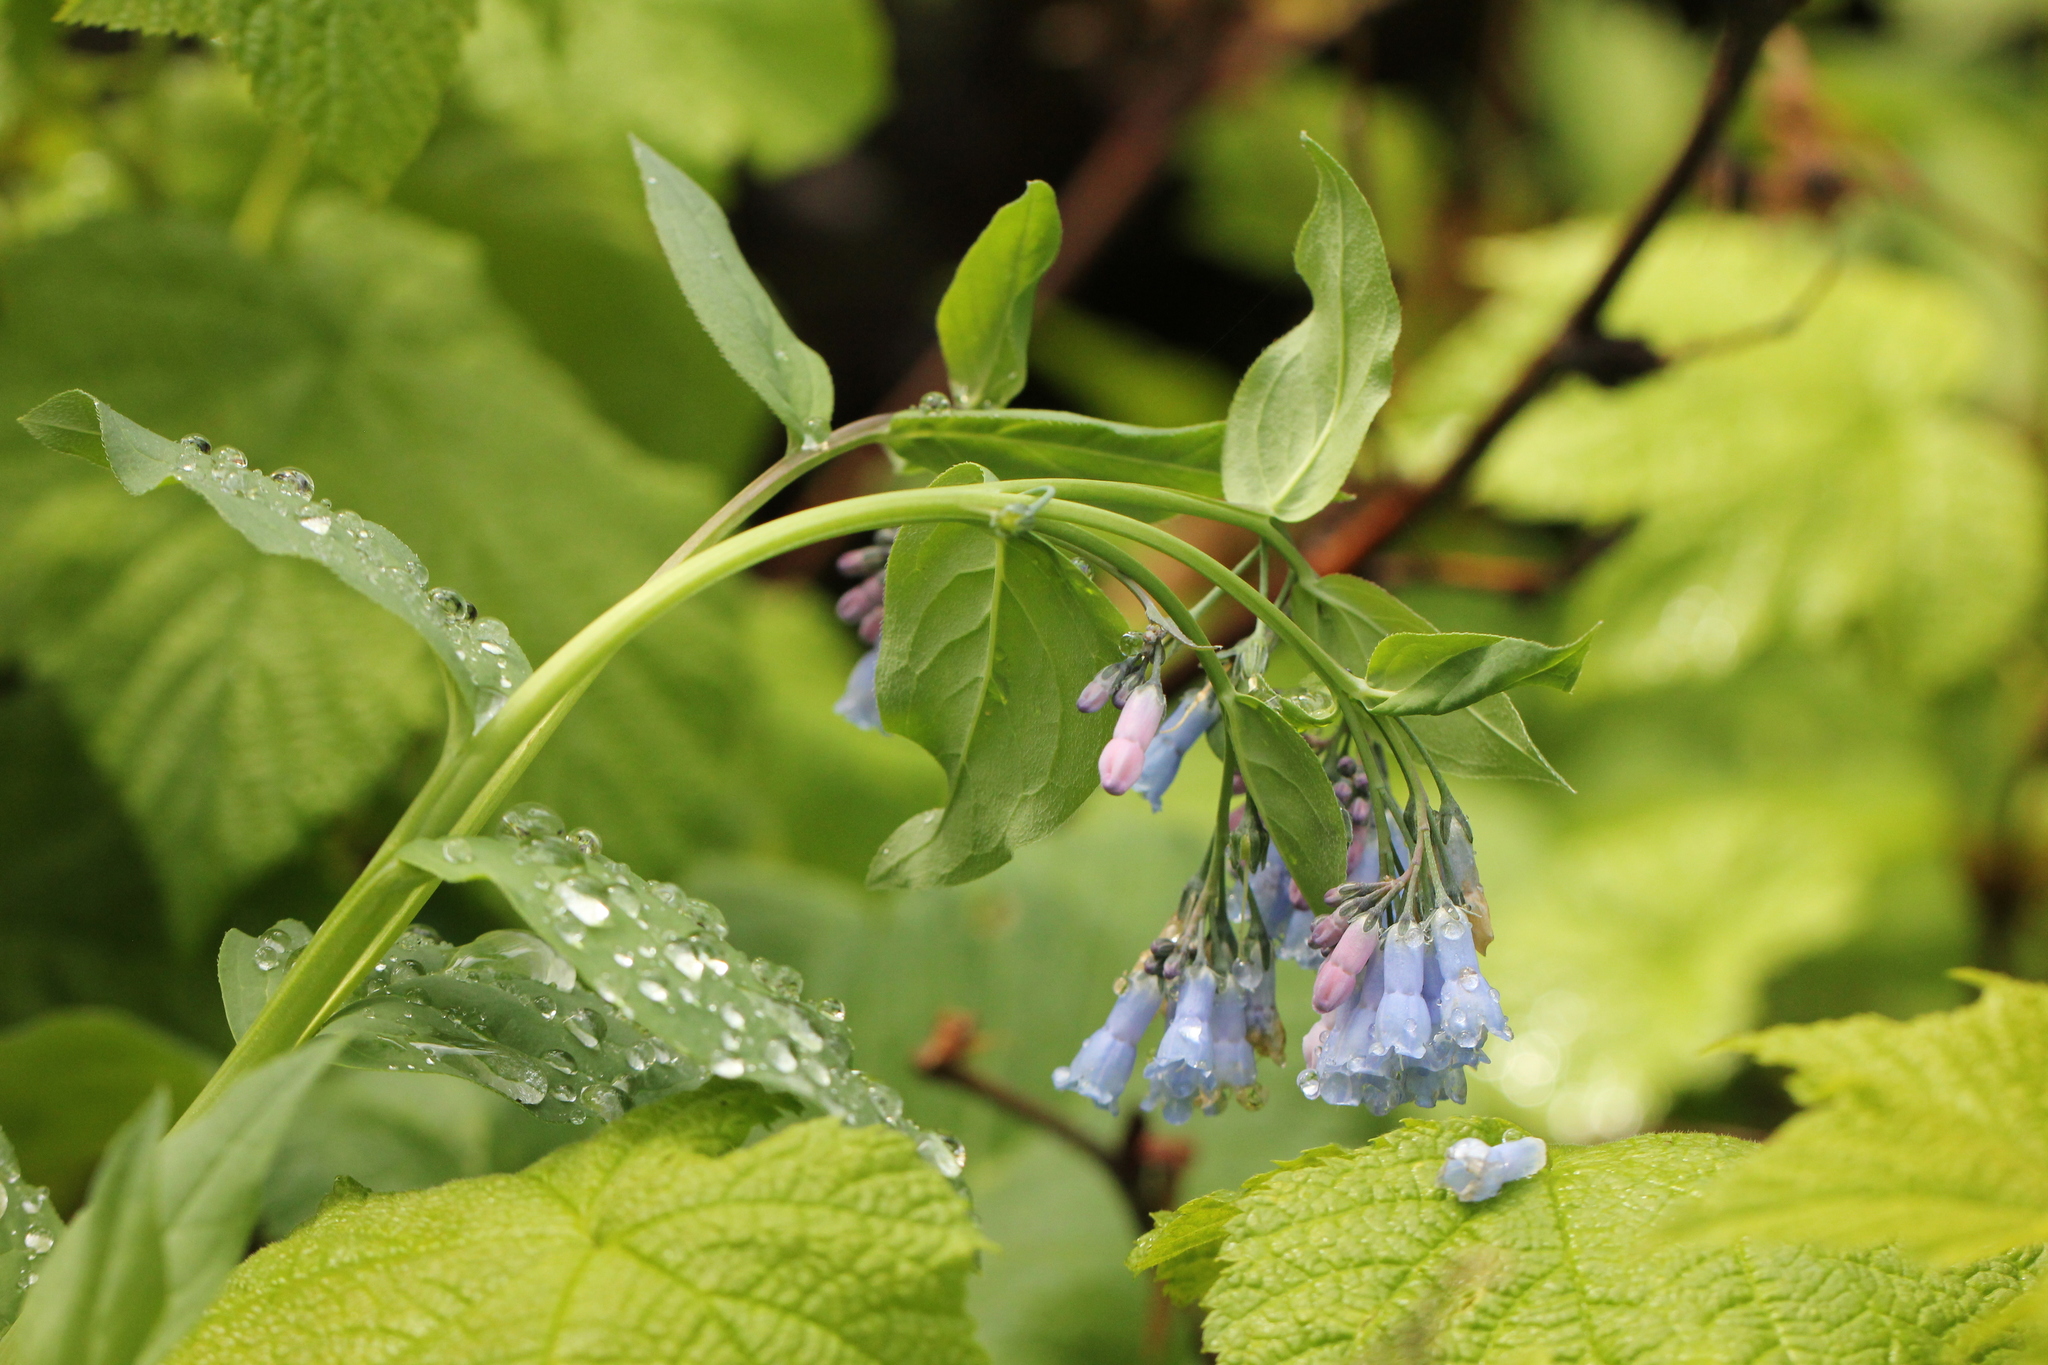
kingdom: Plantae
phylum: Tracheophyta
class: Magnoliopsida
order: Boraginales
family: Boraginaceae
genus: Mertensia
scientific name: Mertensia ciliata
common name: Tall chiming-bells
